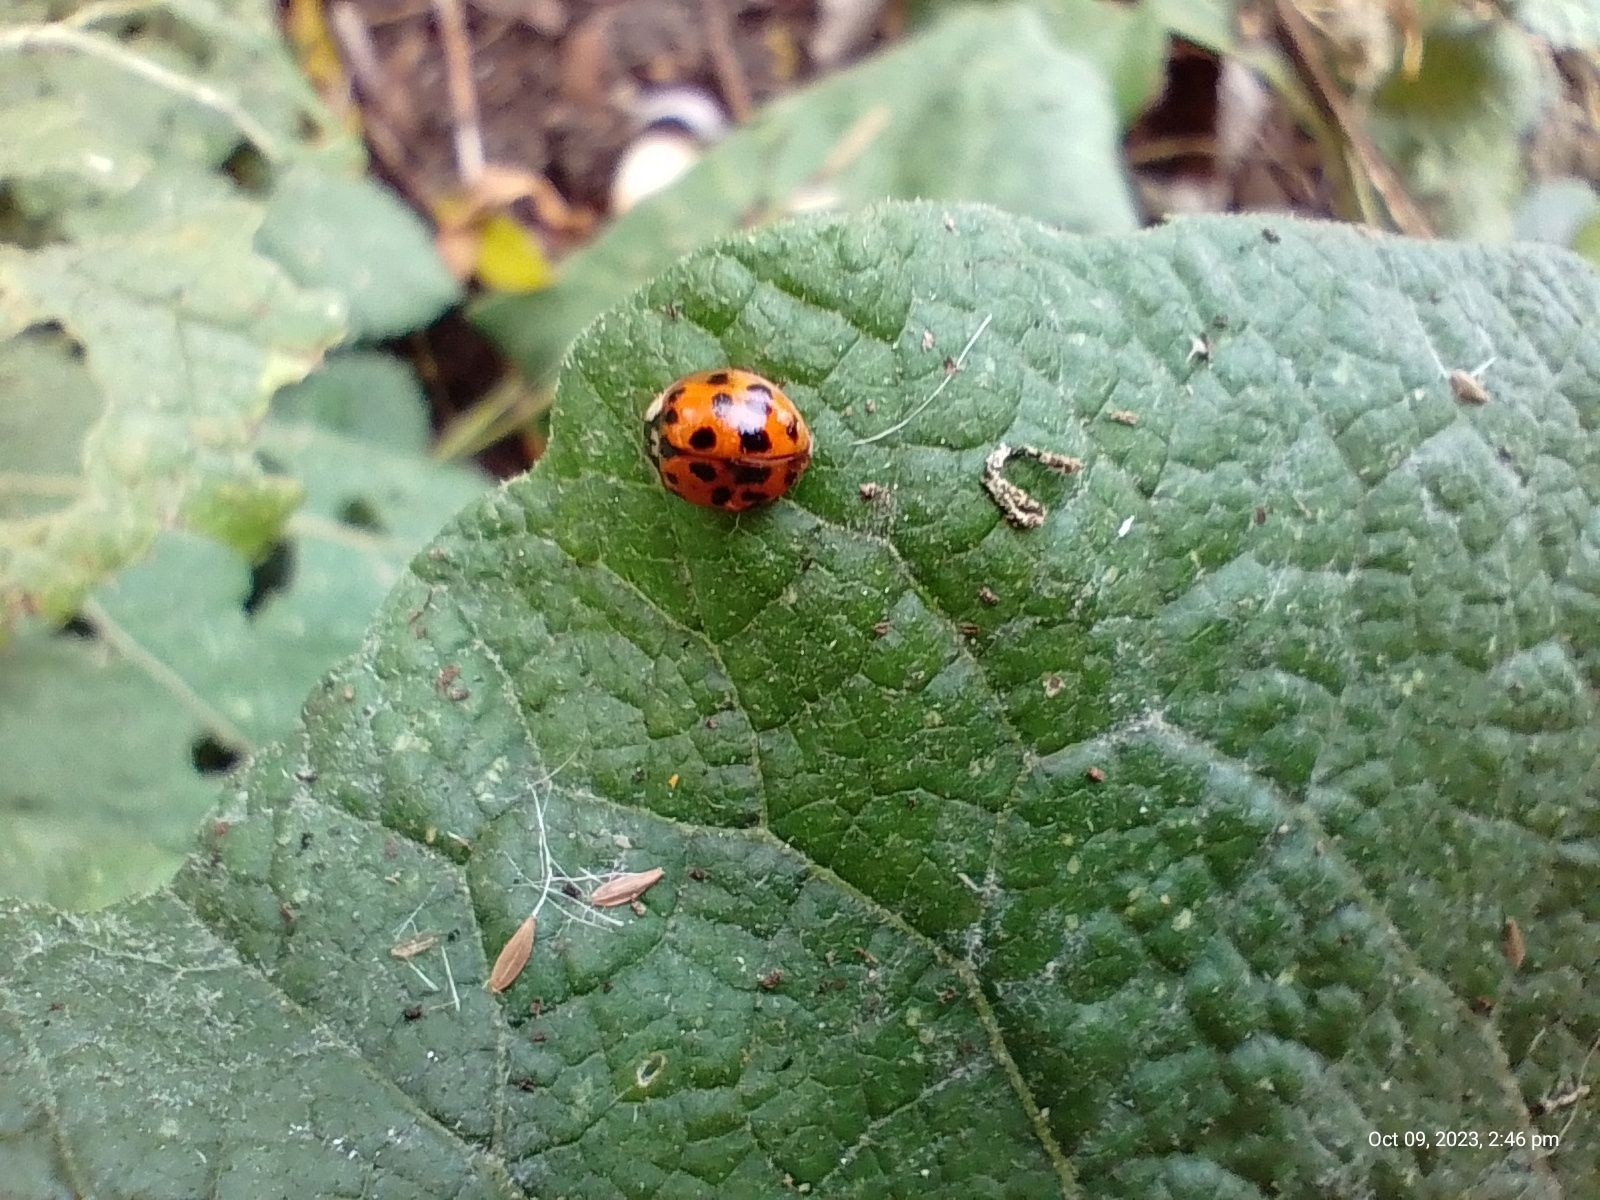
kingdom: Animalia
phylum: Arthropoda
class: Insecta
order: Coleoptera
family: Coccinellidae
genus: Harmonia
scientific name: Harmonia axyridis
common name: Harlequin ladybird
